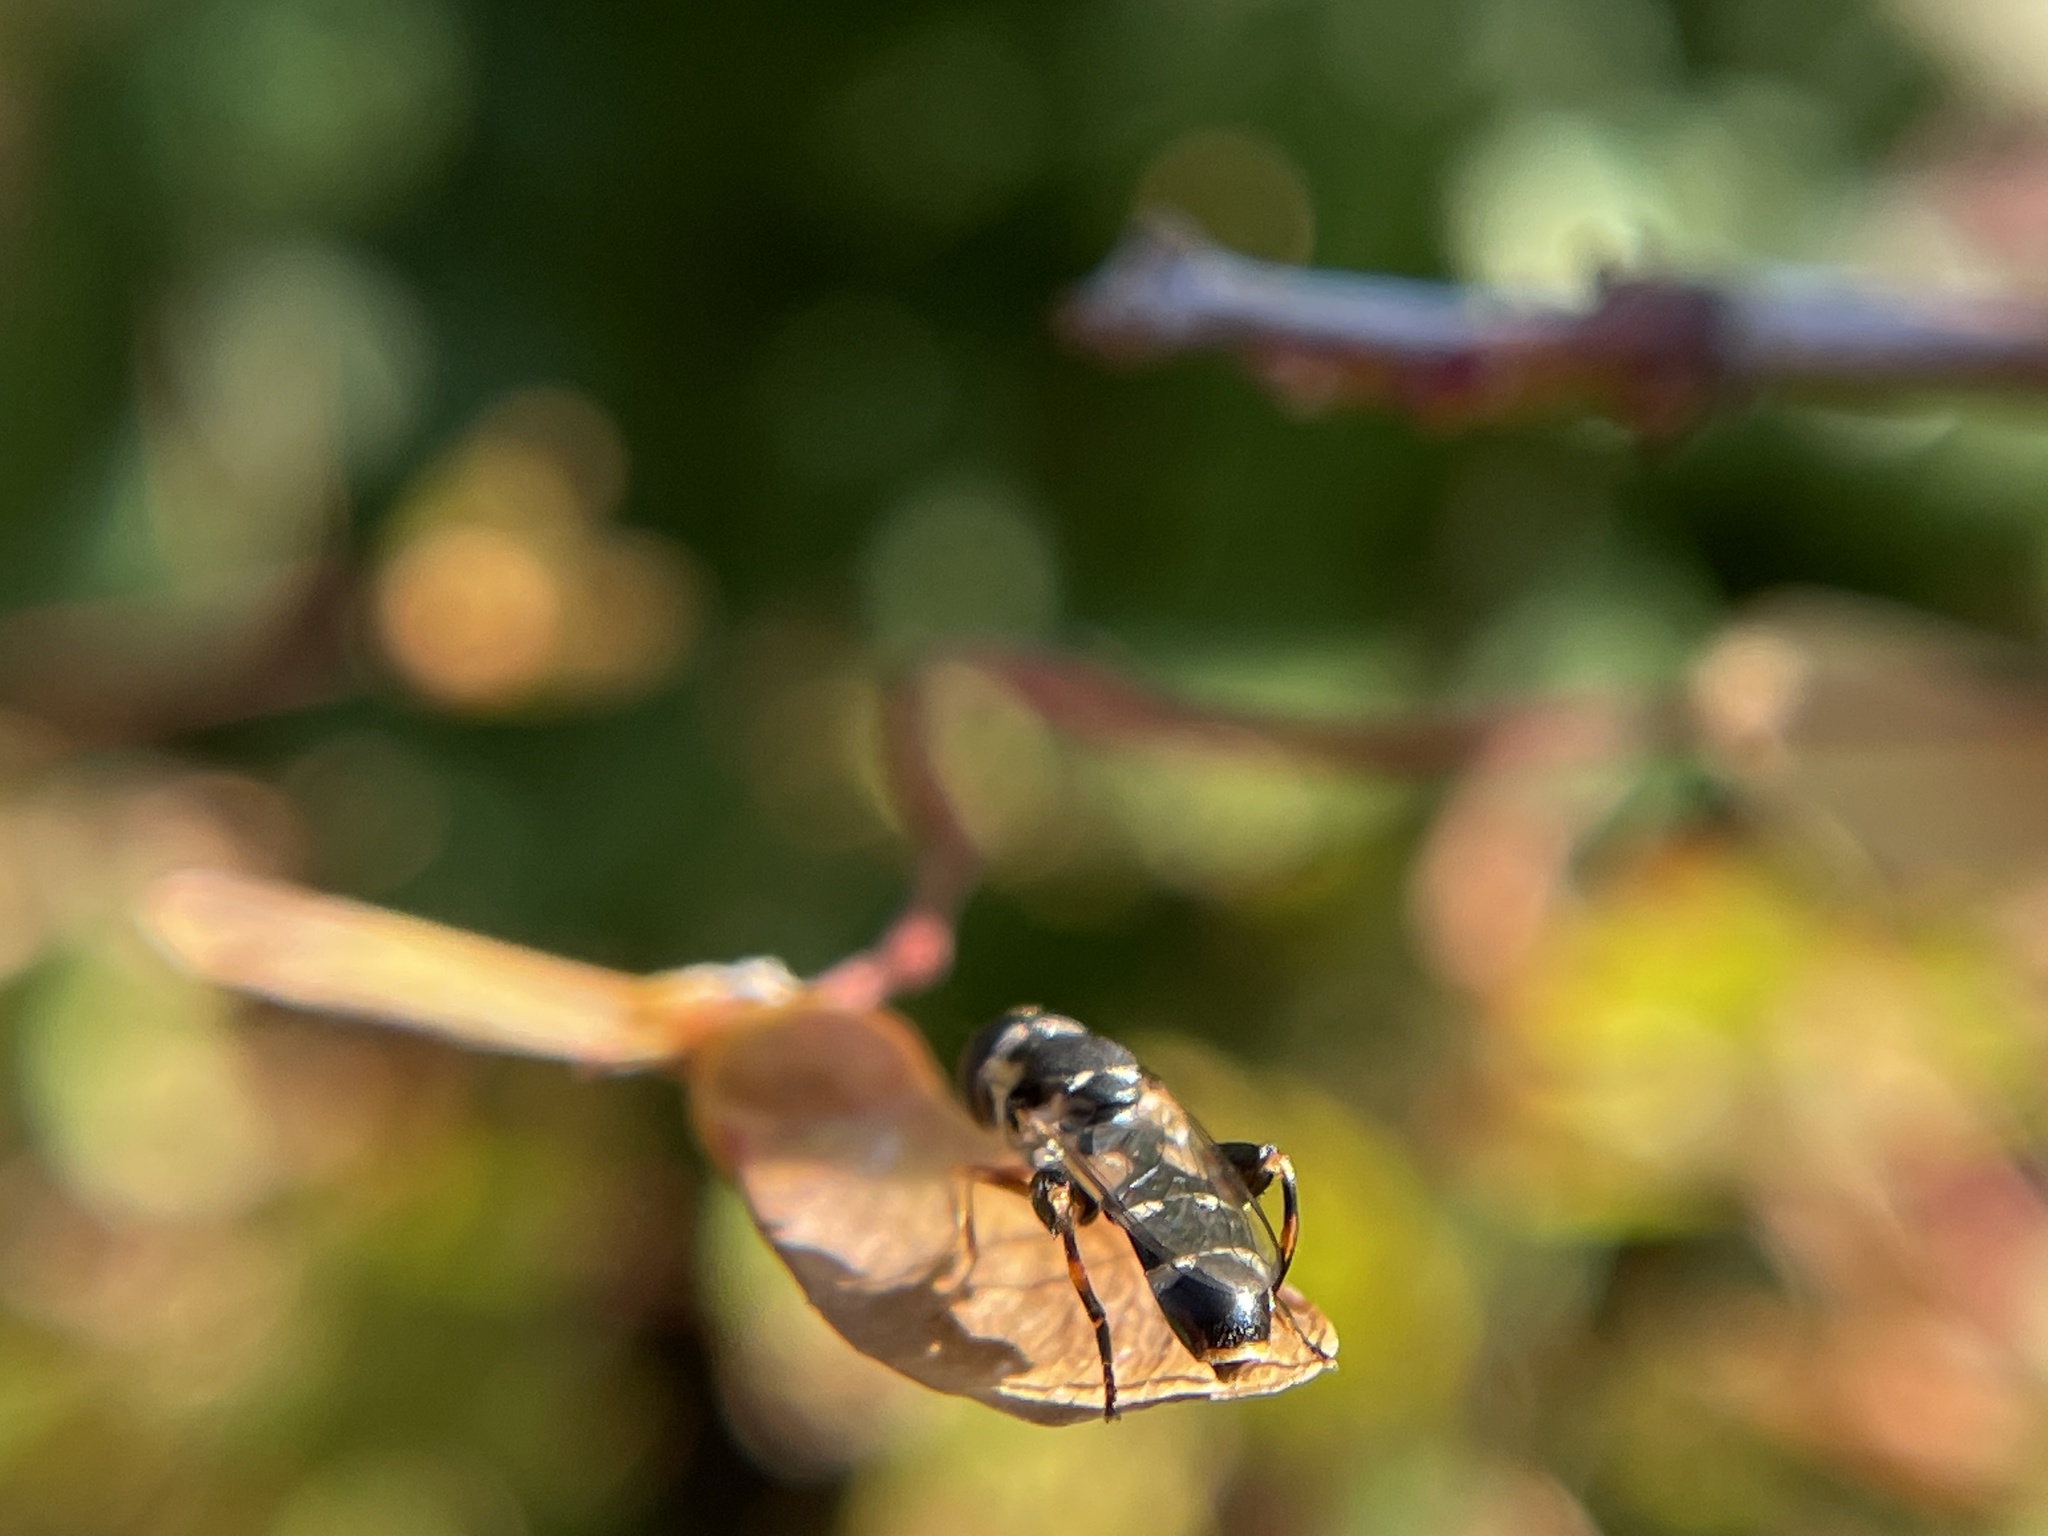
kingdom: Animalia
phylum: Arthropoda
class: Insecta
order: Diptera
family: Syrphidae
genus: Syritta
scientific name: Syritta pipiens
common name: Hover fly
